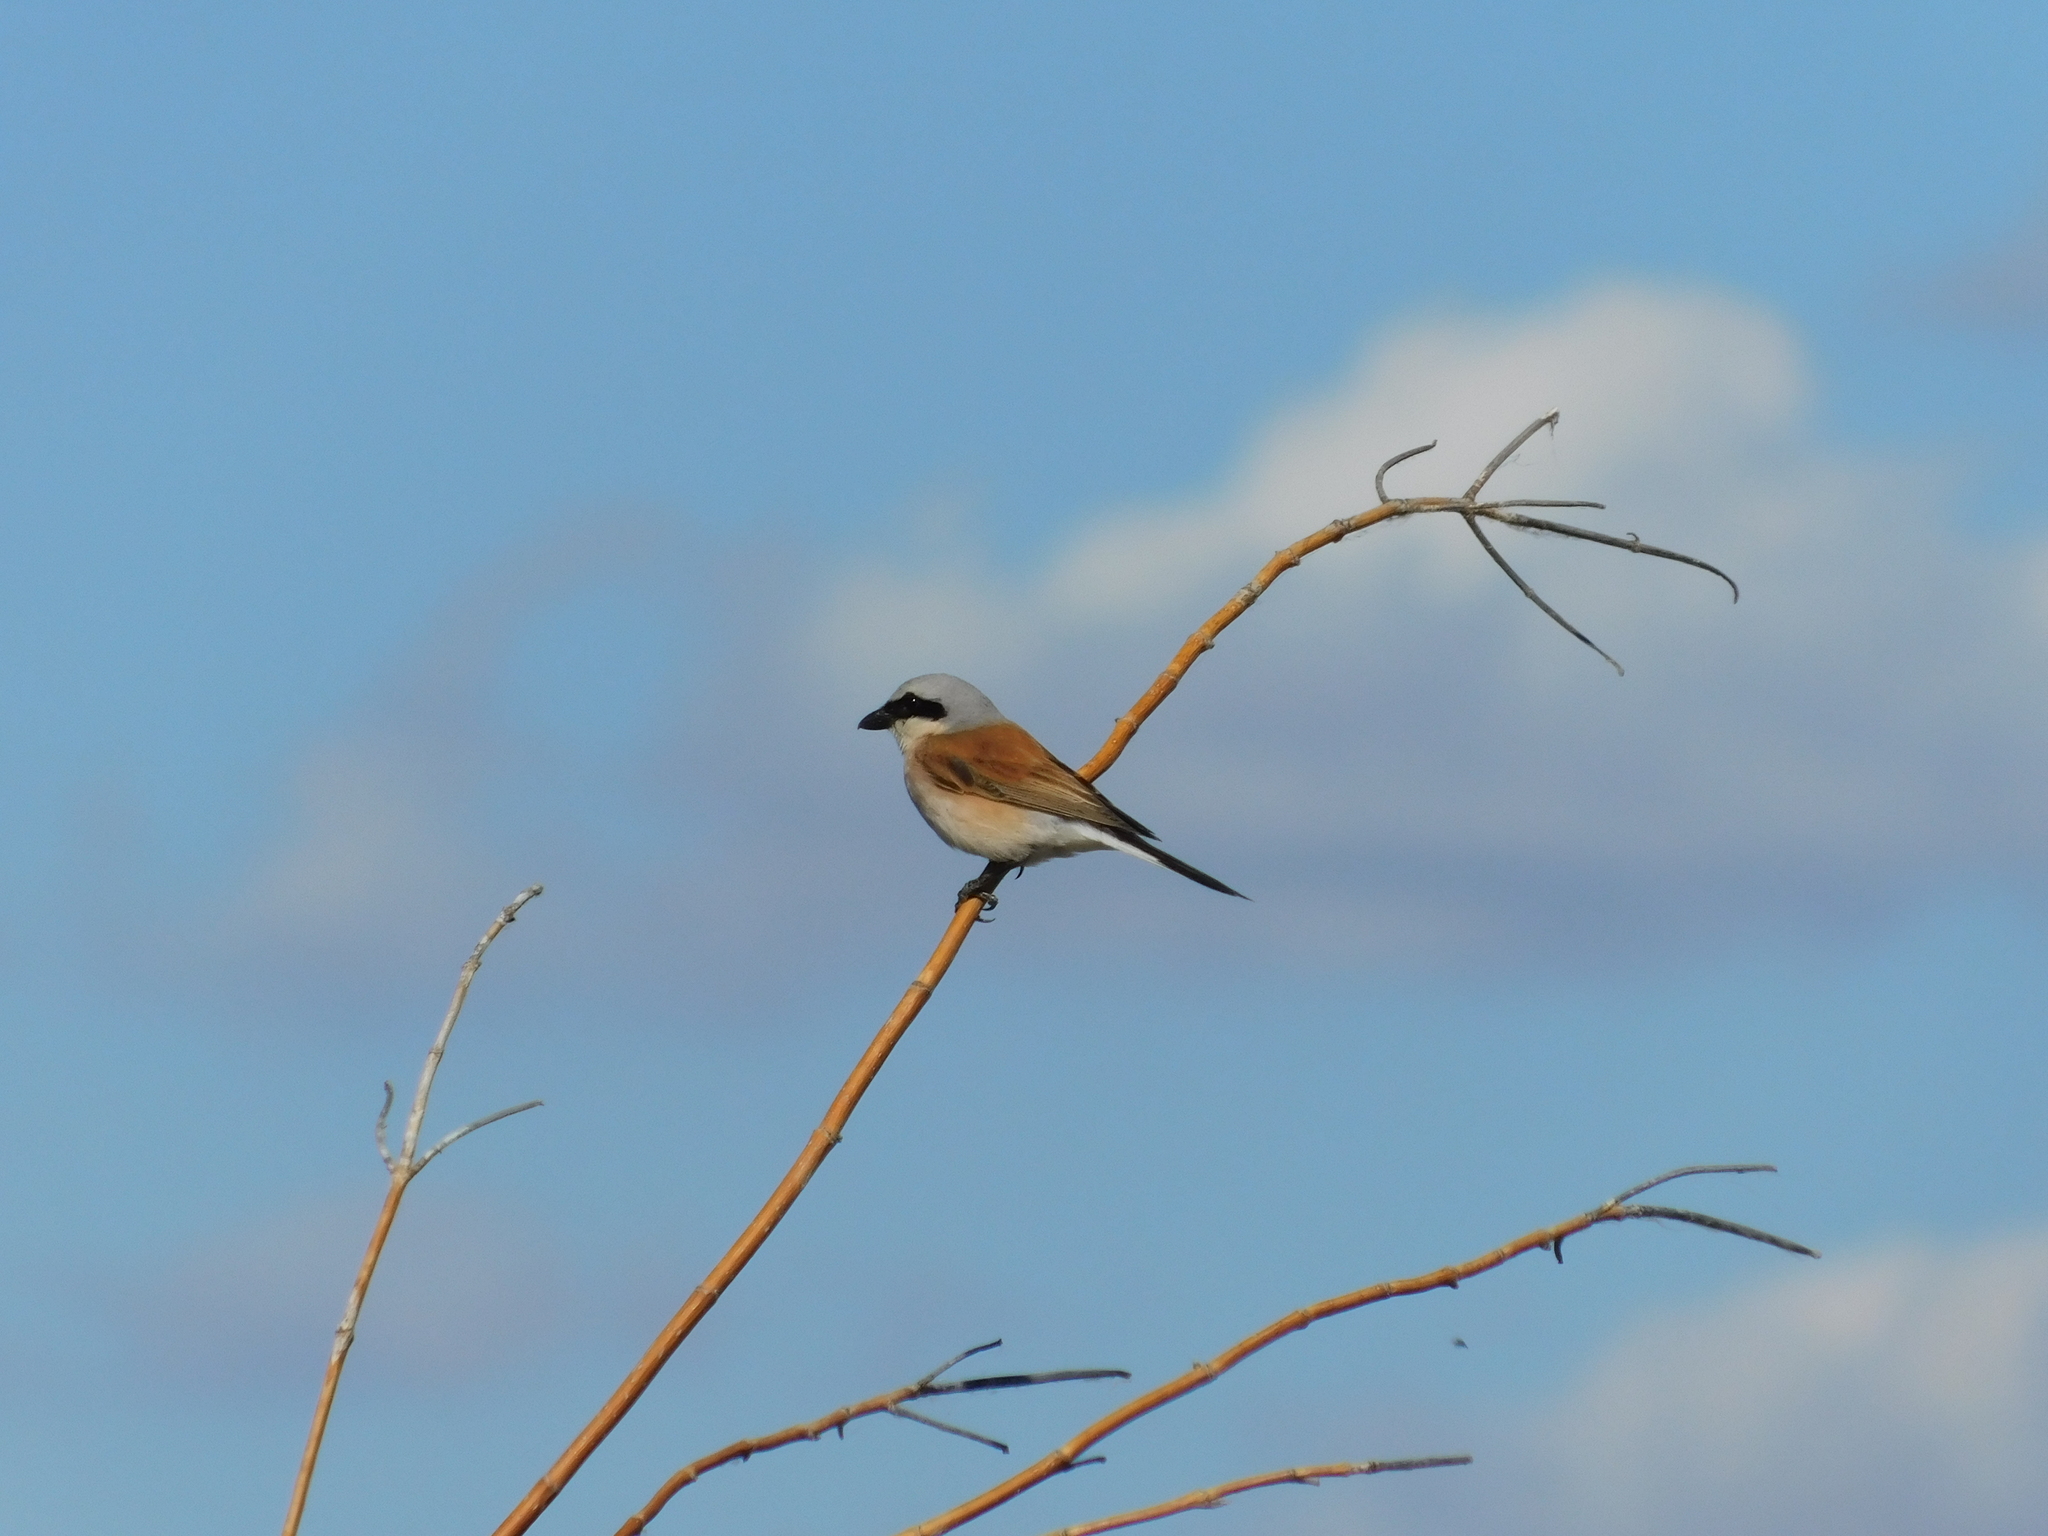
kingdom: Animalia
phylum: Chordata
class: Aves
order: Passeriformes
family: Laniidae
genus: Lanius
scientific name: Lanius collurio
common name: Red-backed shrike
